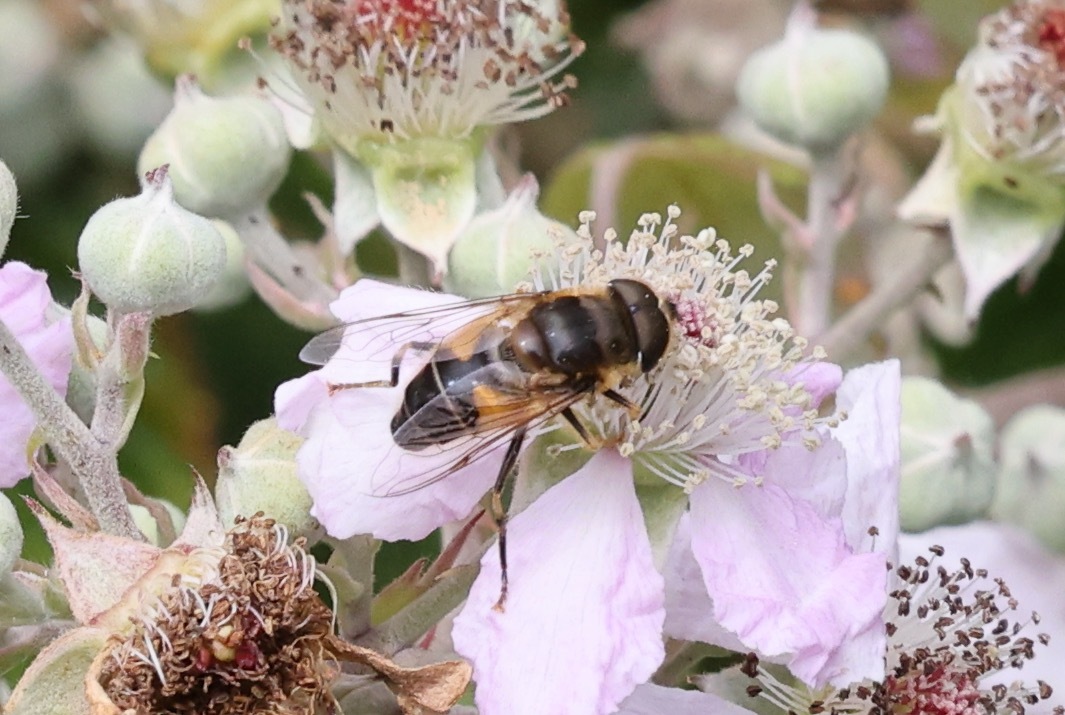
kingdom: Animalia
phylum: Arthropoda
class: Insecta
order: Diptera
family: Syrphidae
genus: Eristalis
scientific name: Eristalis pertinax
